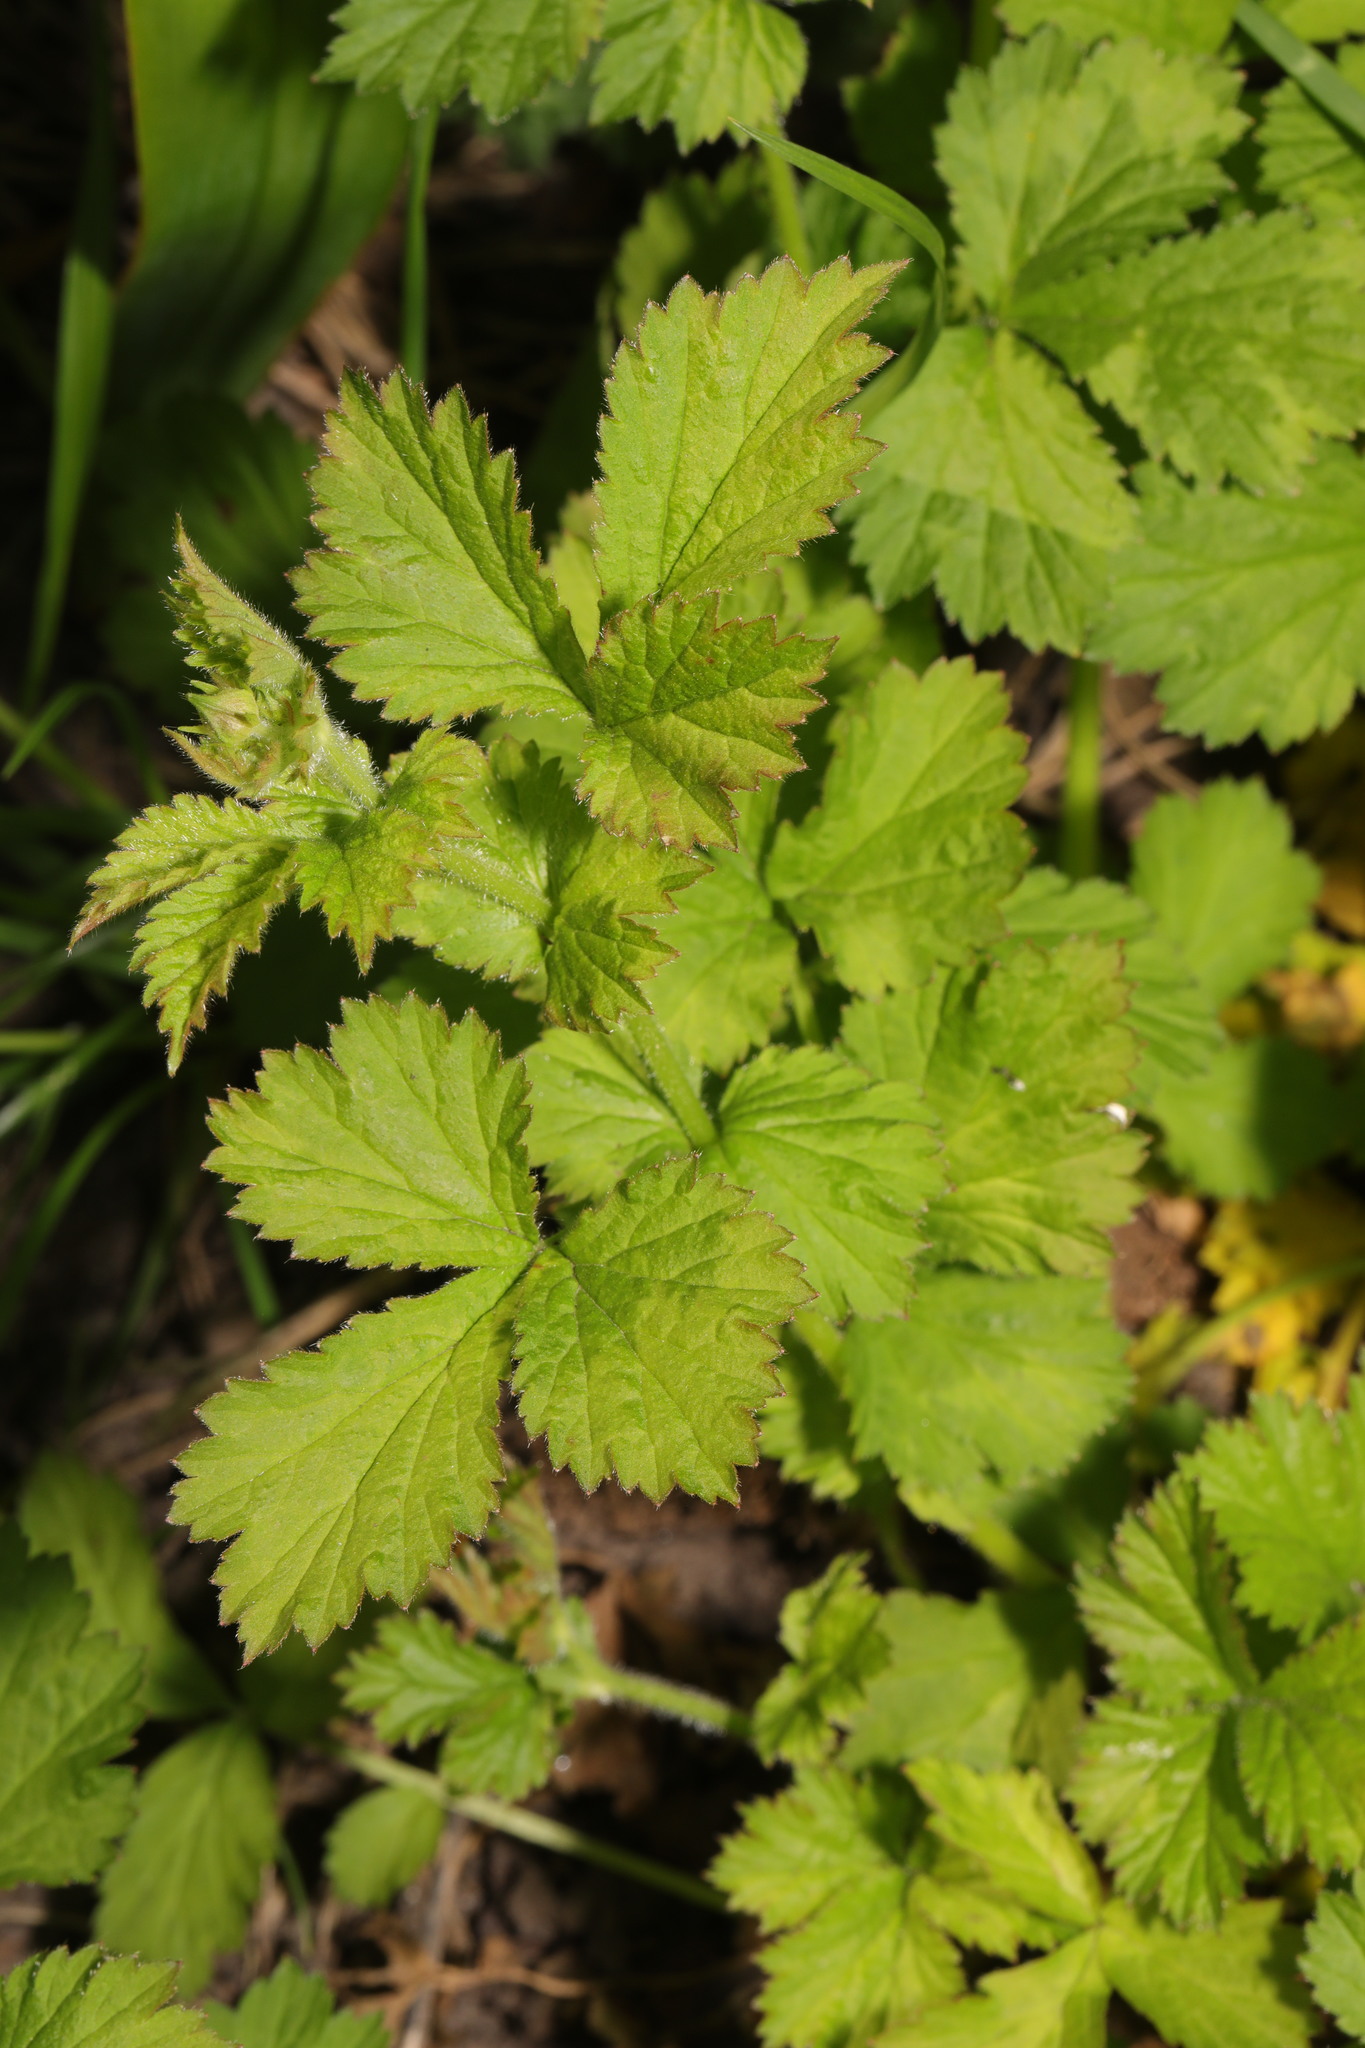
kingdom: Plantae
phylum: Tracheophyta
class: Magnoliopsida
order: Rosales
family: Rosaceae
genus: Geum
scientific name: Geum urbanum
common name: Wood avens
